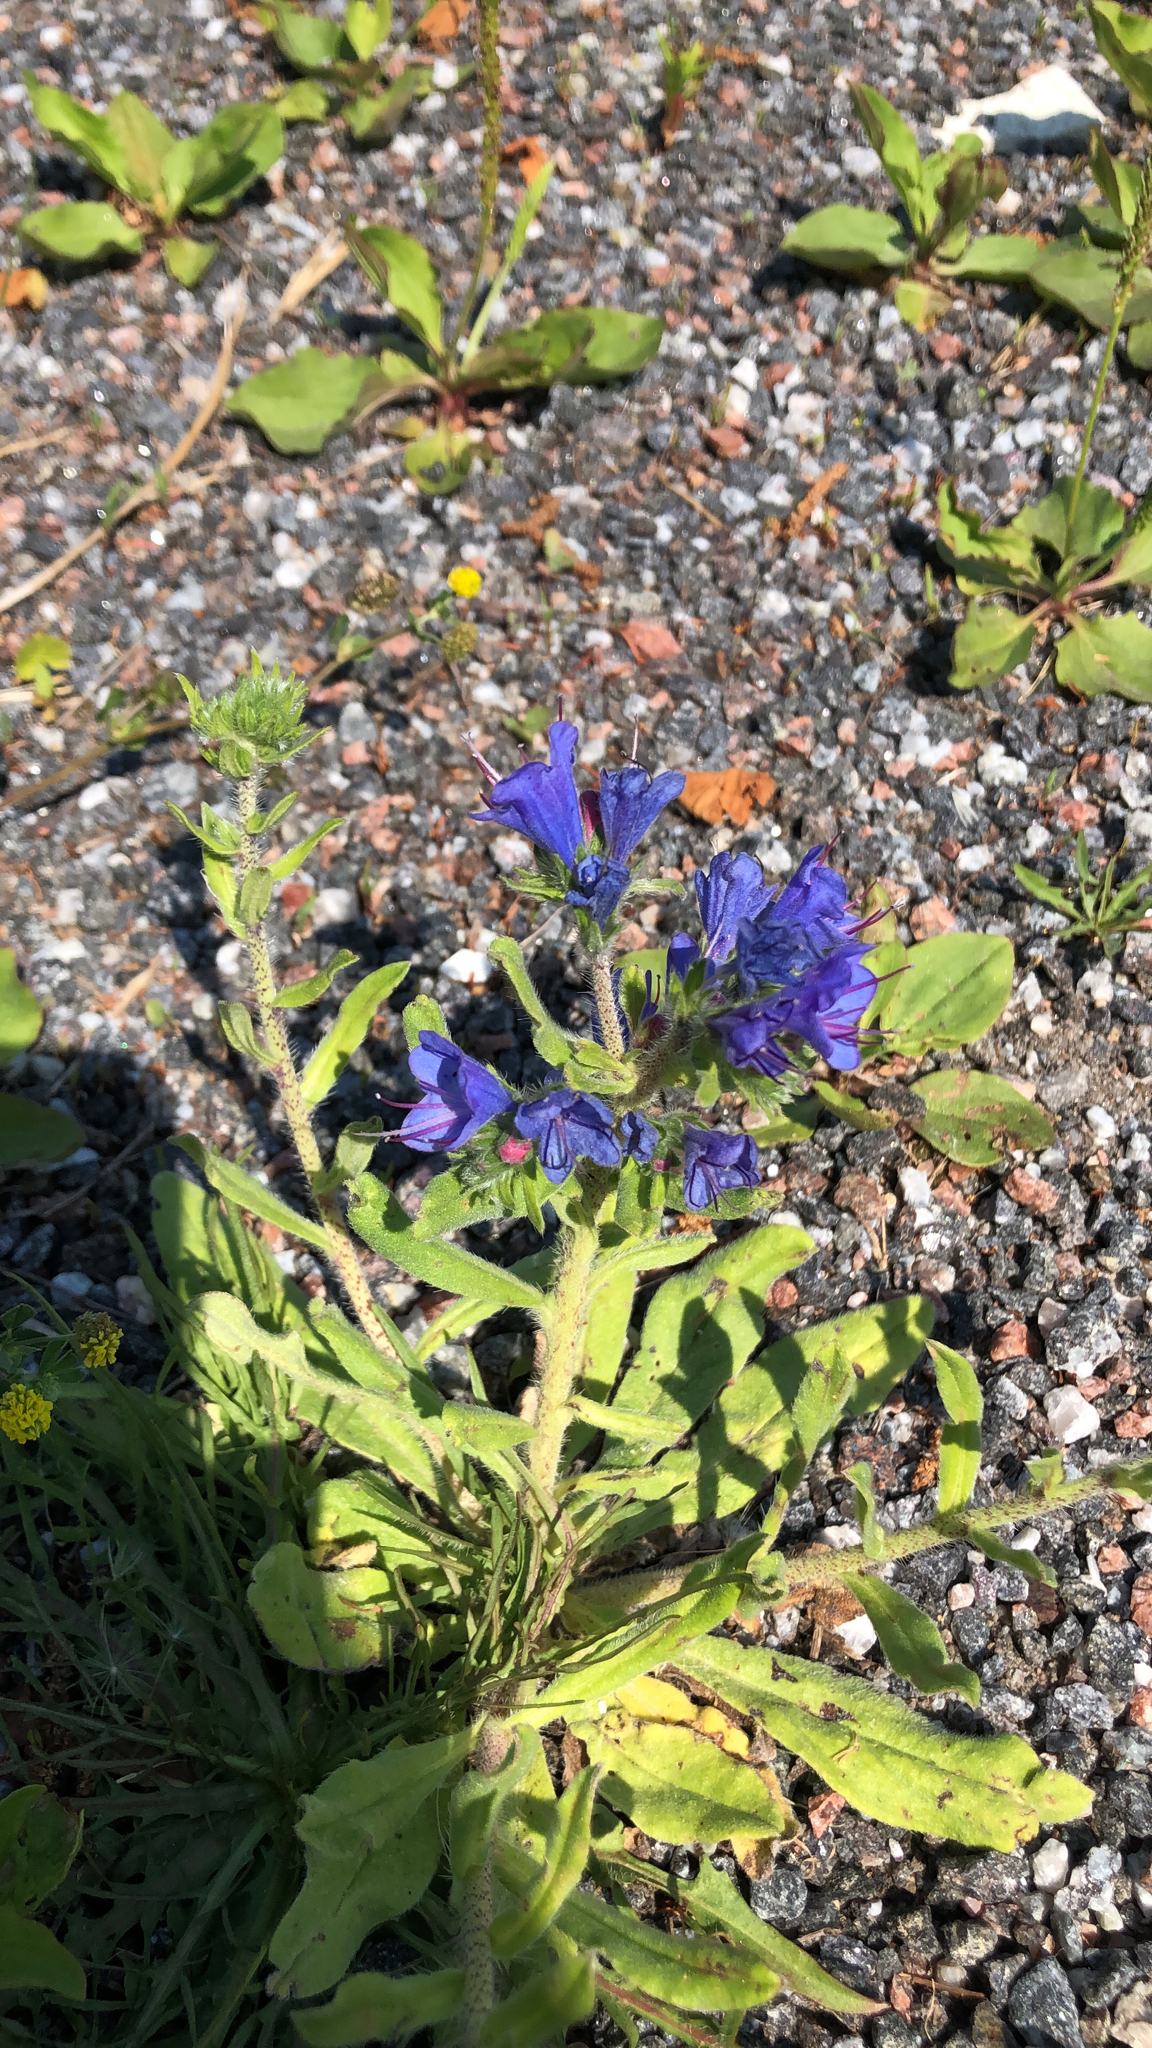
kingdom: Plantae
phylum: Tracheophyta
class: Magnoliopsida
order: Boraginales
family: Boraginaceae
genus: Echium
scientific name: Echium vulgare
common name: Common viper's bugloss
